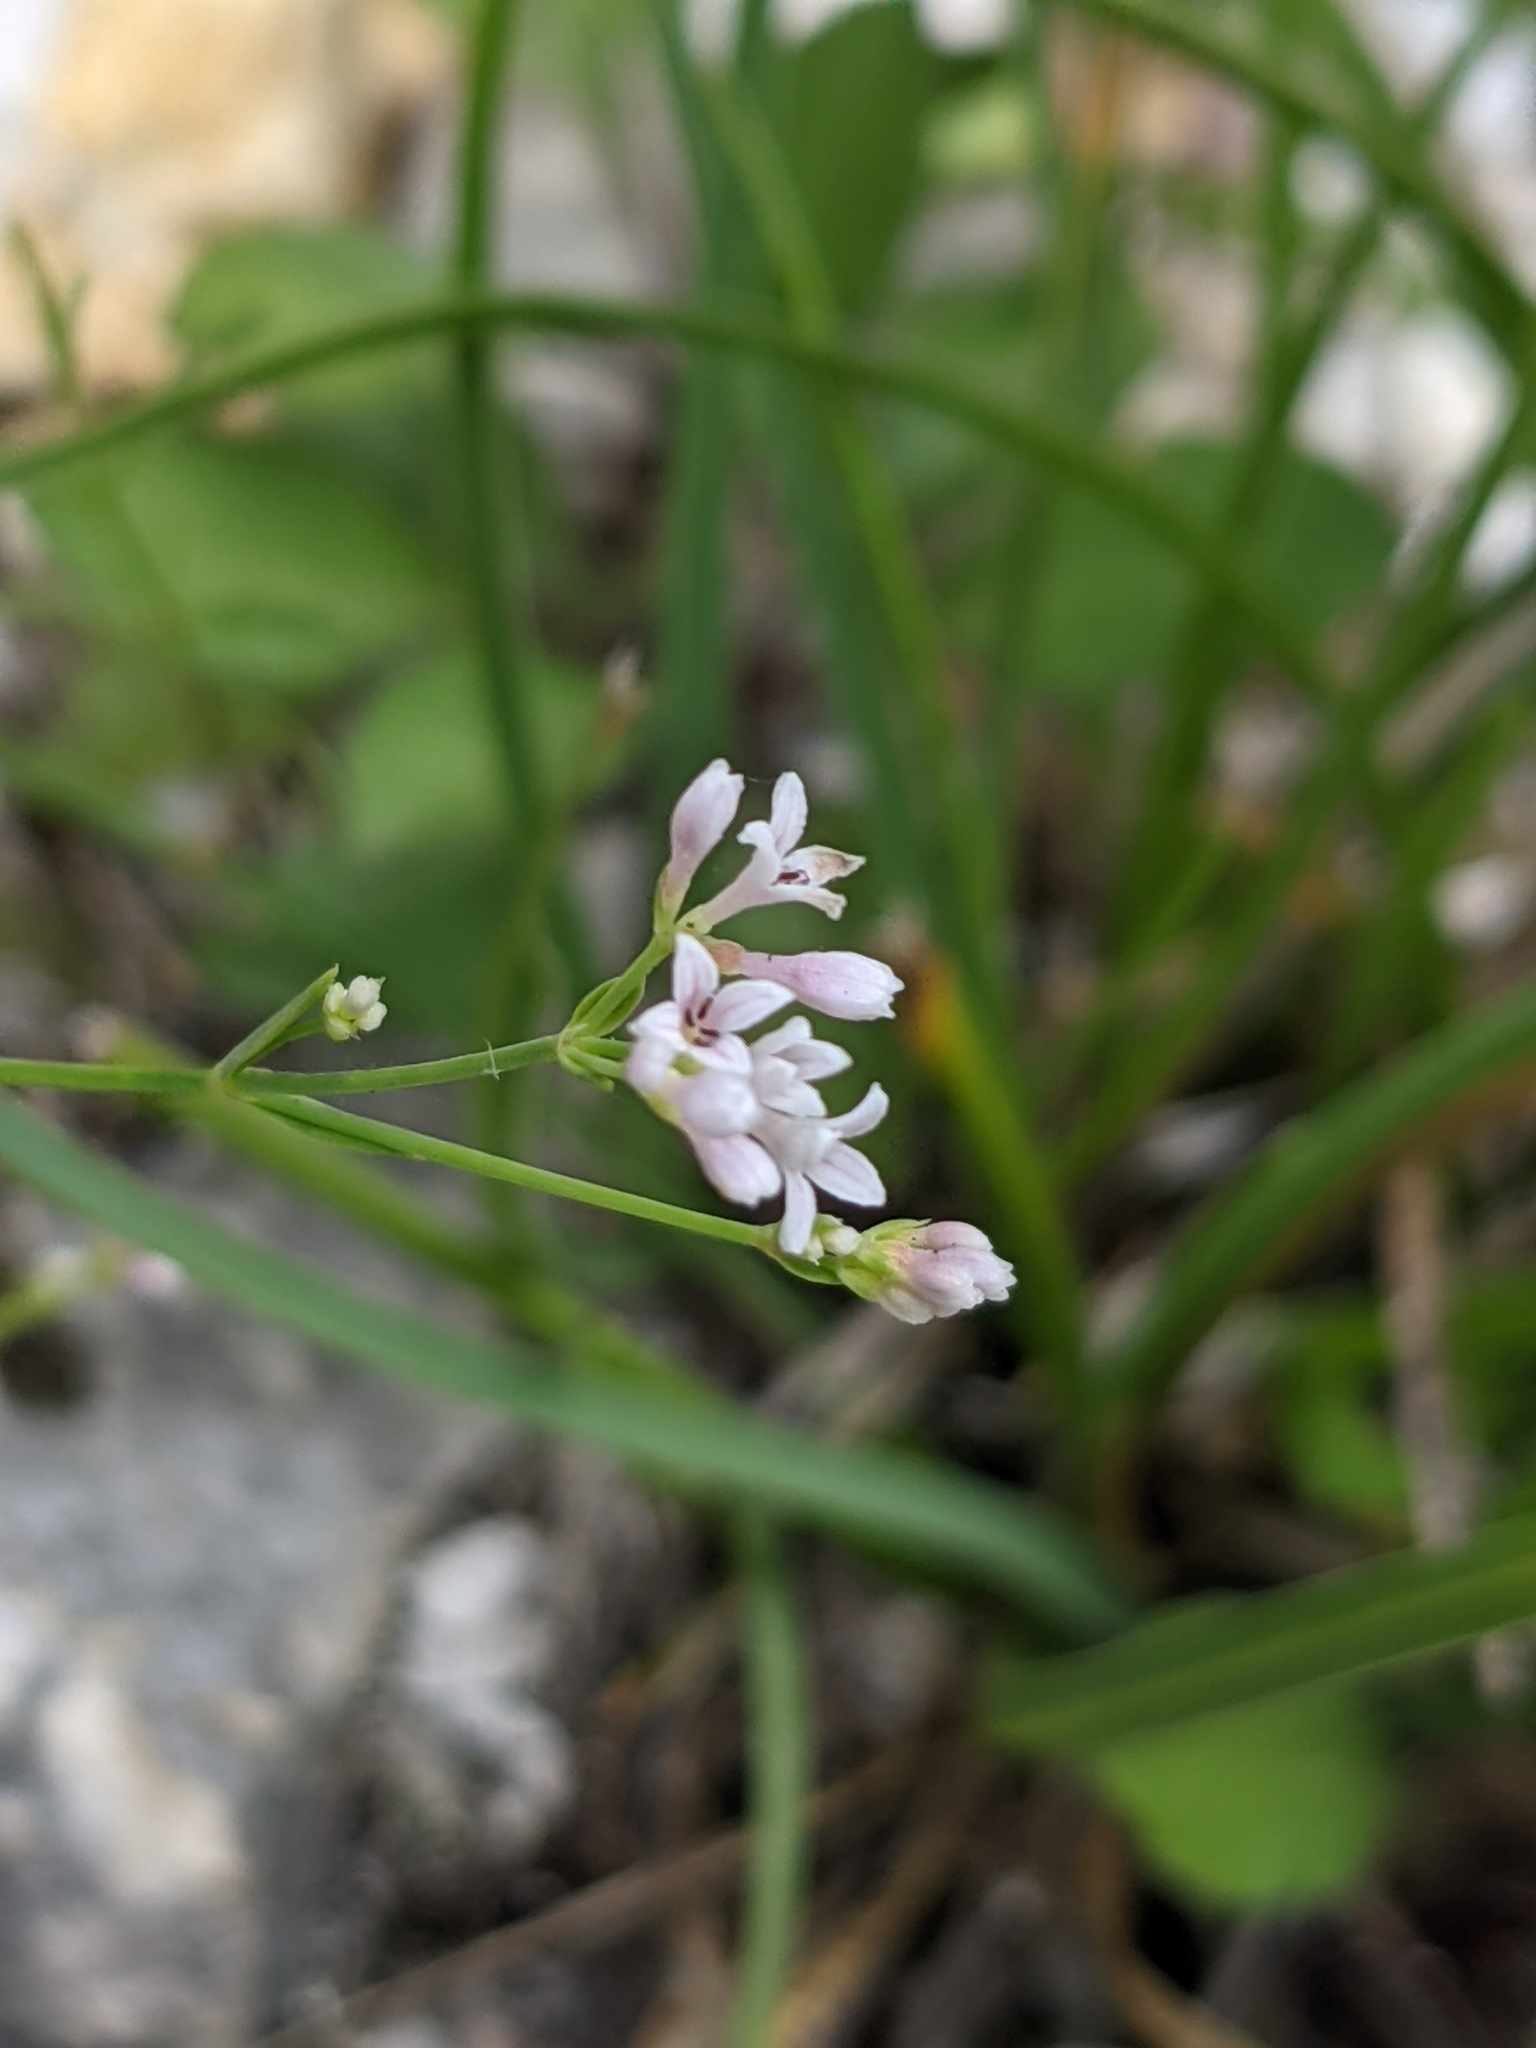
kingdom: Plantae
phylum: Tracheophyta
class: Magnoliopsida
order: Gentianales
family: Rubiaceae
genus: Cynanchica
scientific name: Cynanchica pyrenaica
